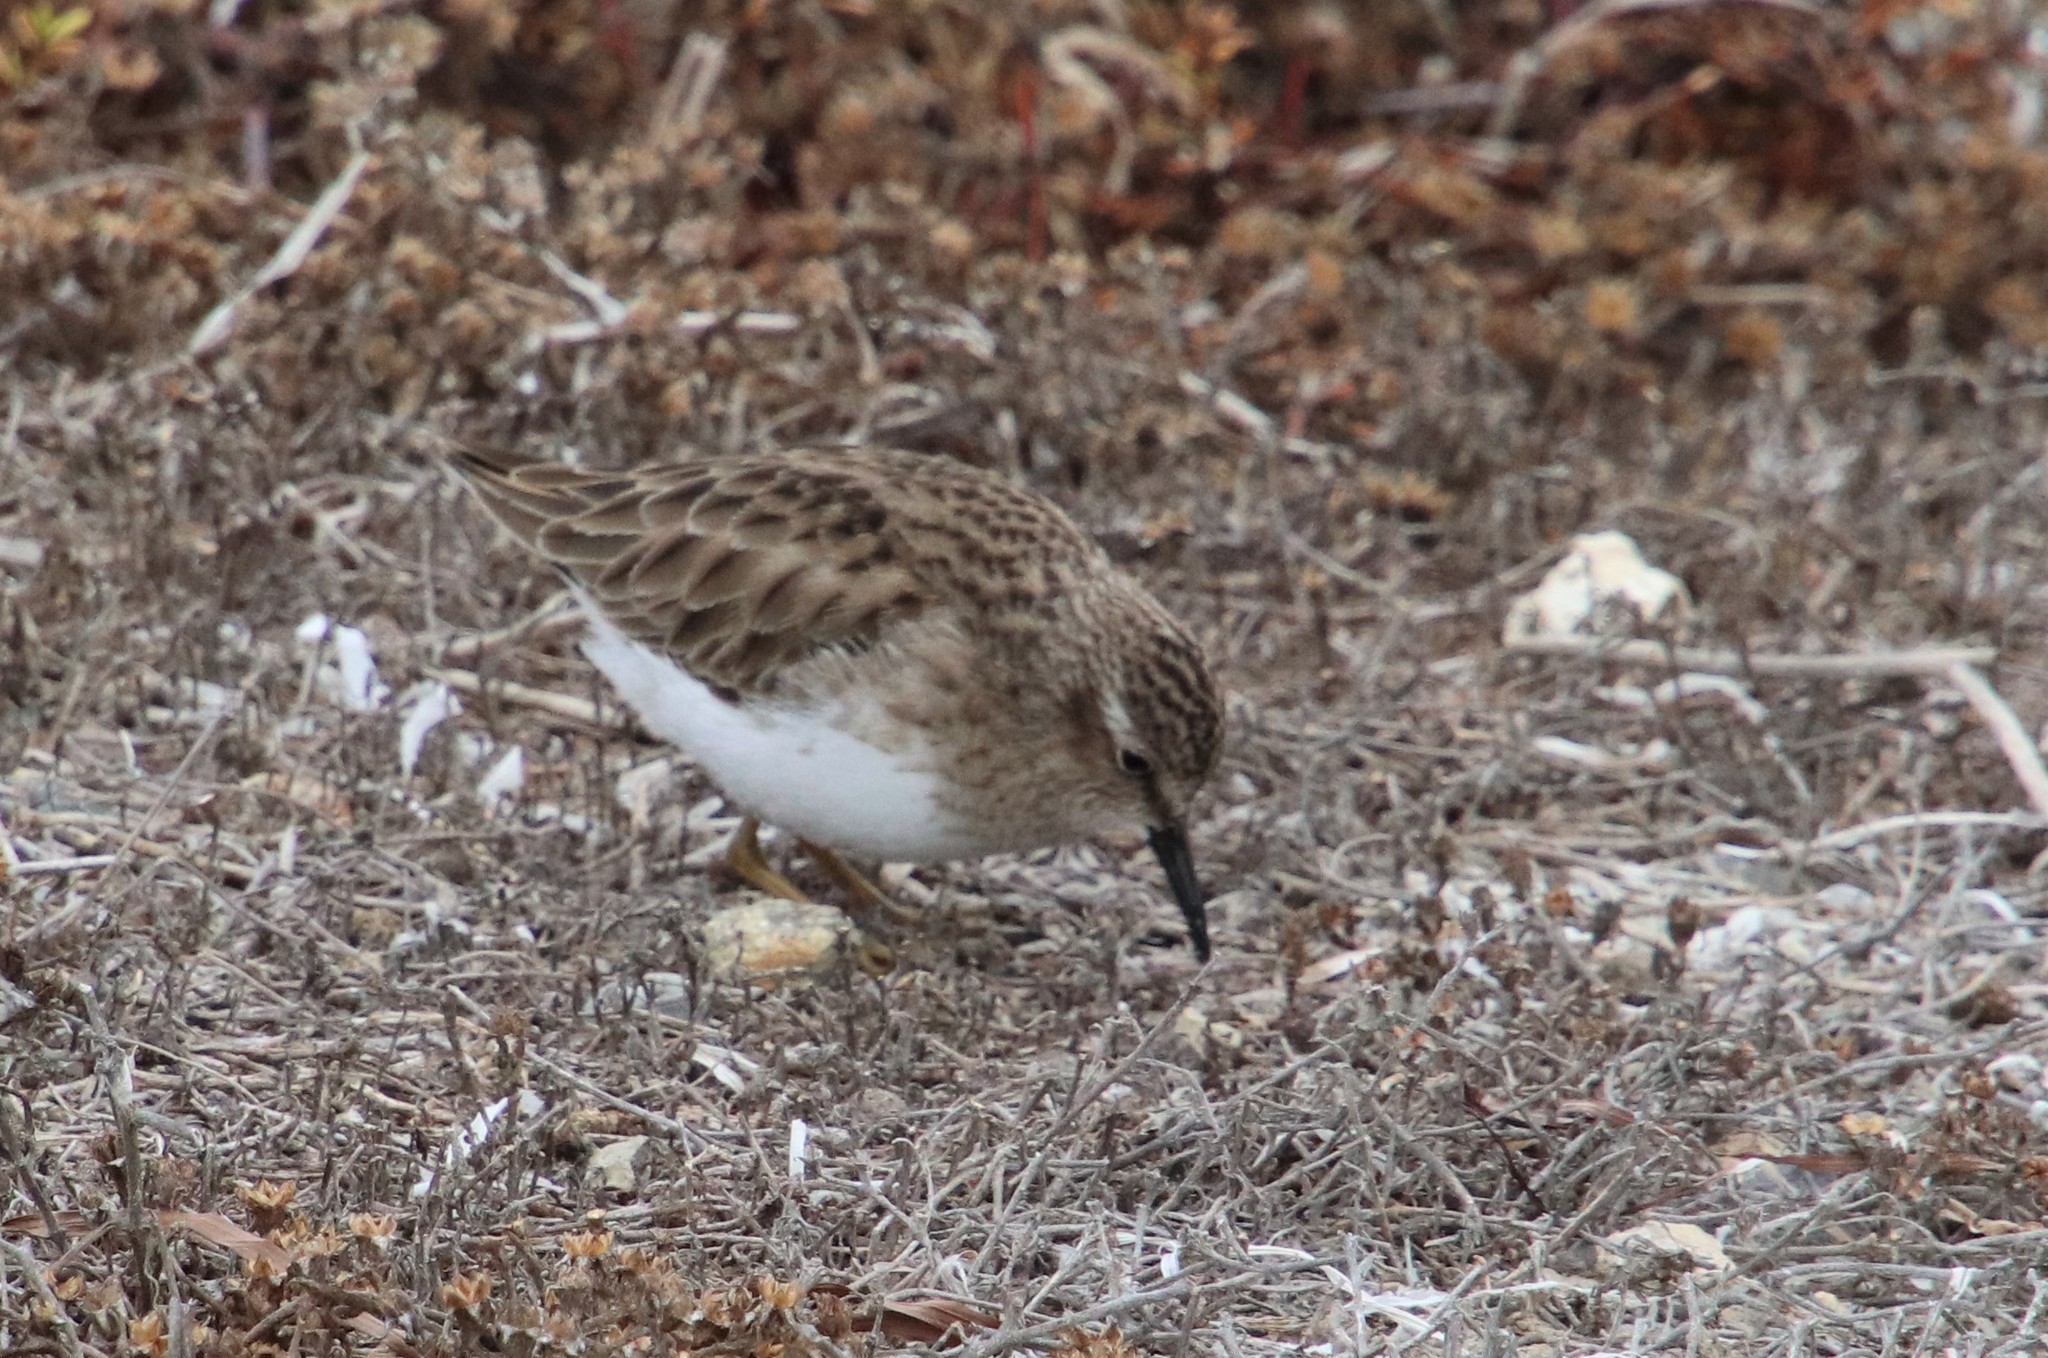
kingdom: Animalia
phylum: Chordata
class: Aves
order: Charadriiformes
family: Scolopacidae
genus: Calidris
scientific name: Calidris minutilla
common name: Least sandpiper
